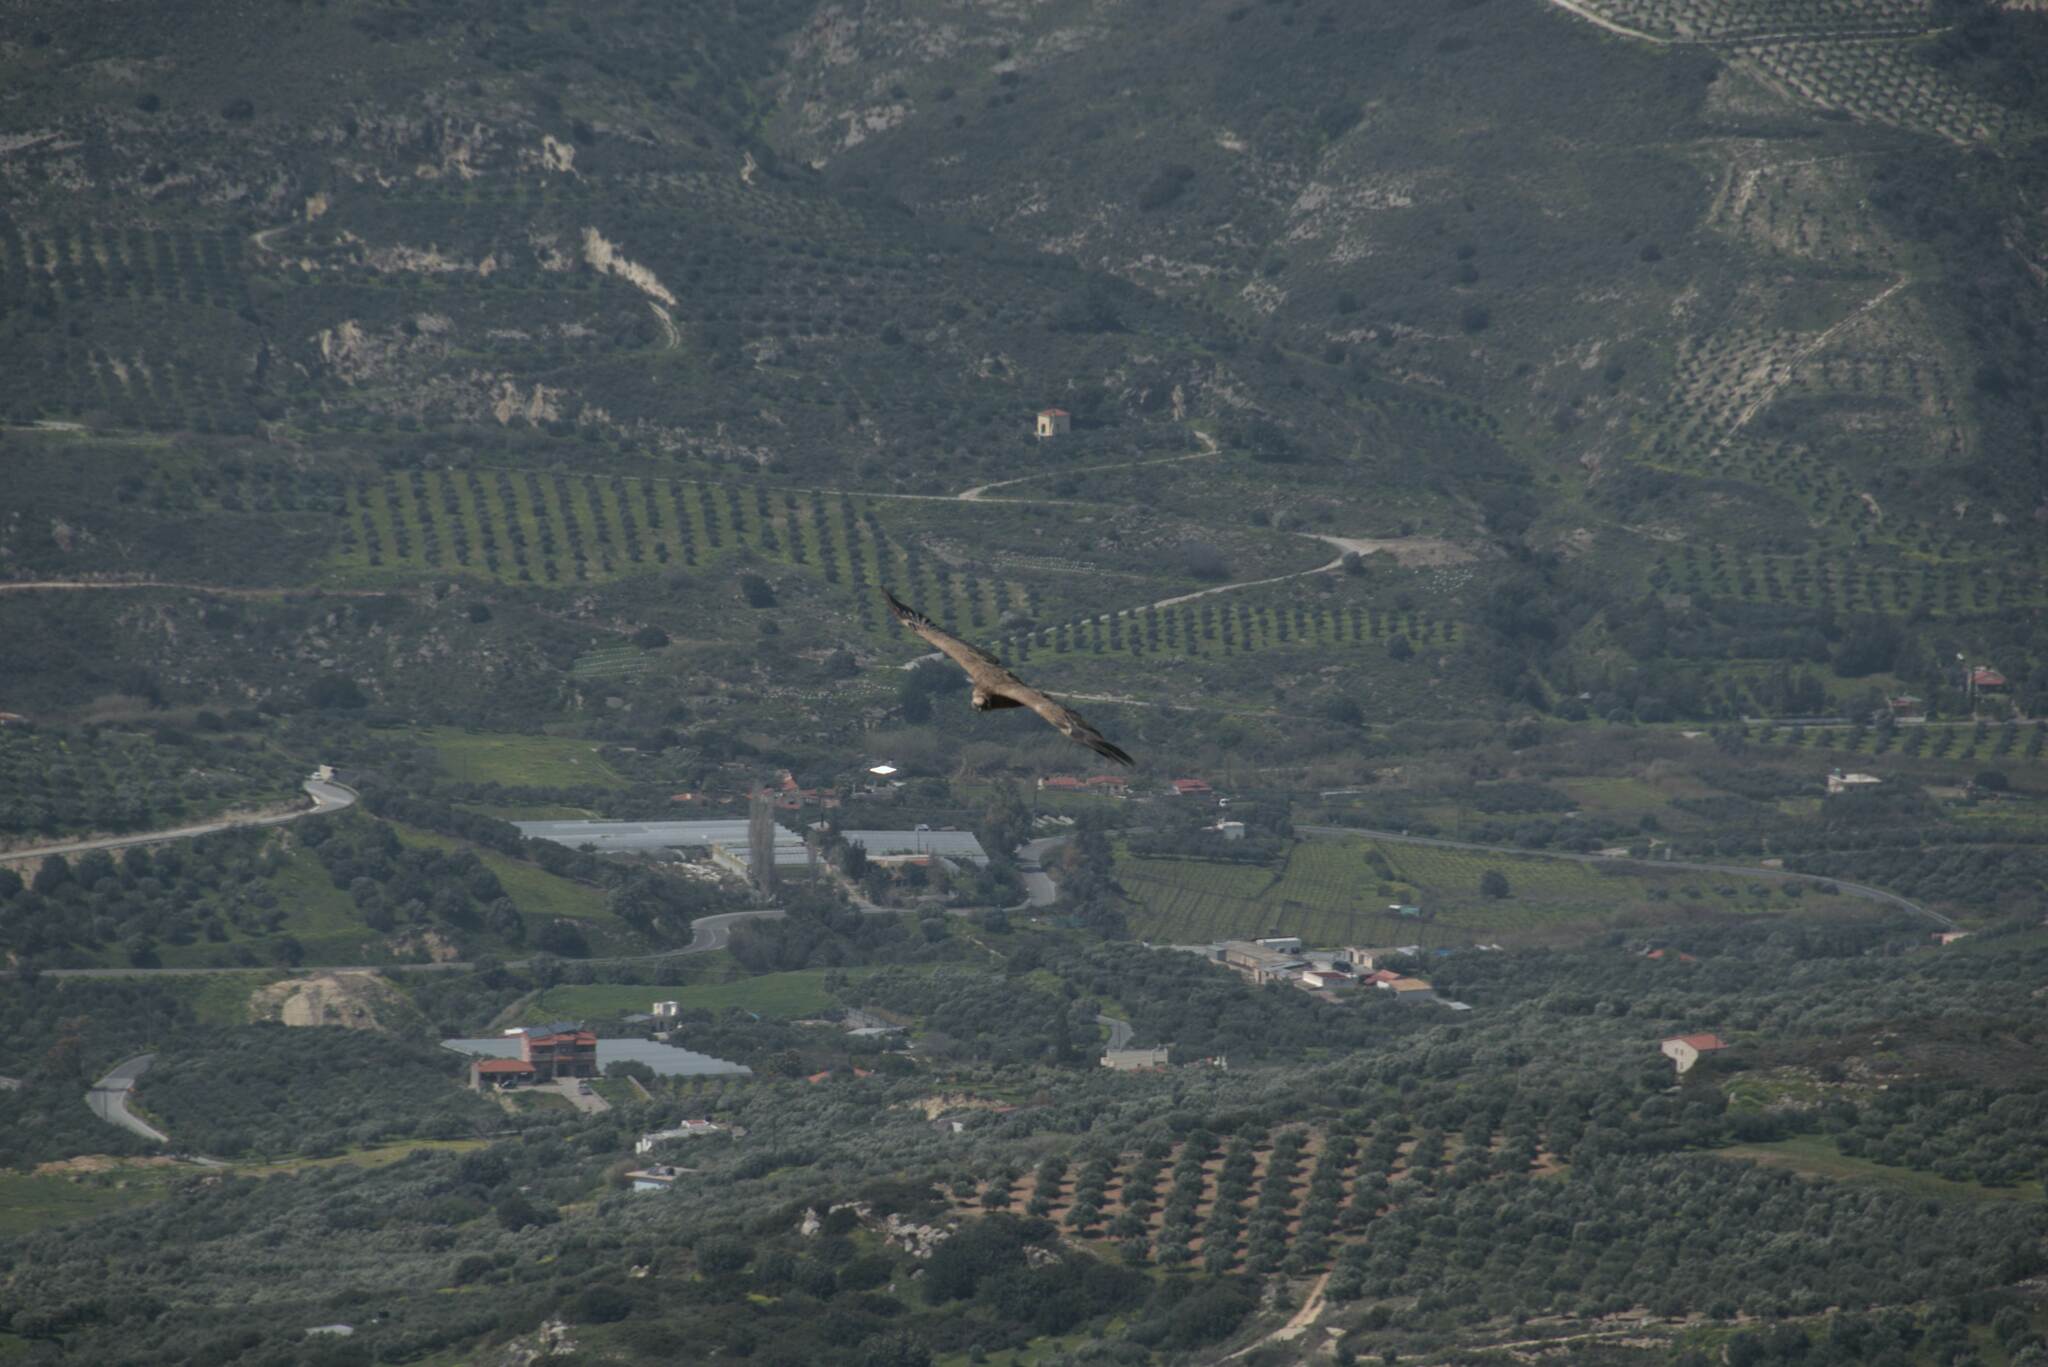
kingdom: Animalia
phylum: Chordata
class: Aves
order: Accipitriformes
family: Accipitridae
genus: Gyps
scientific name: Gyps fulvus
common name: Griffon vulture
